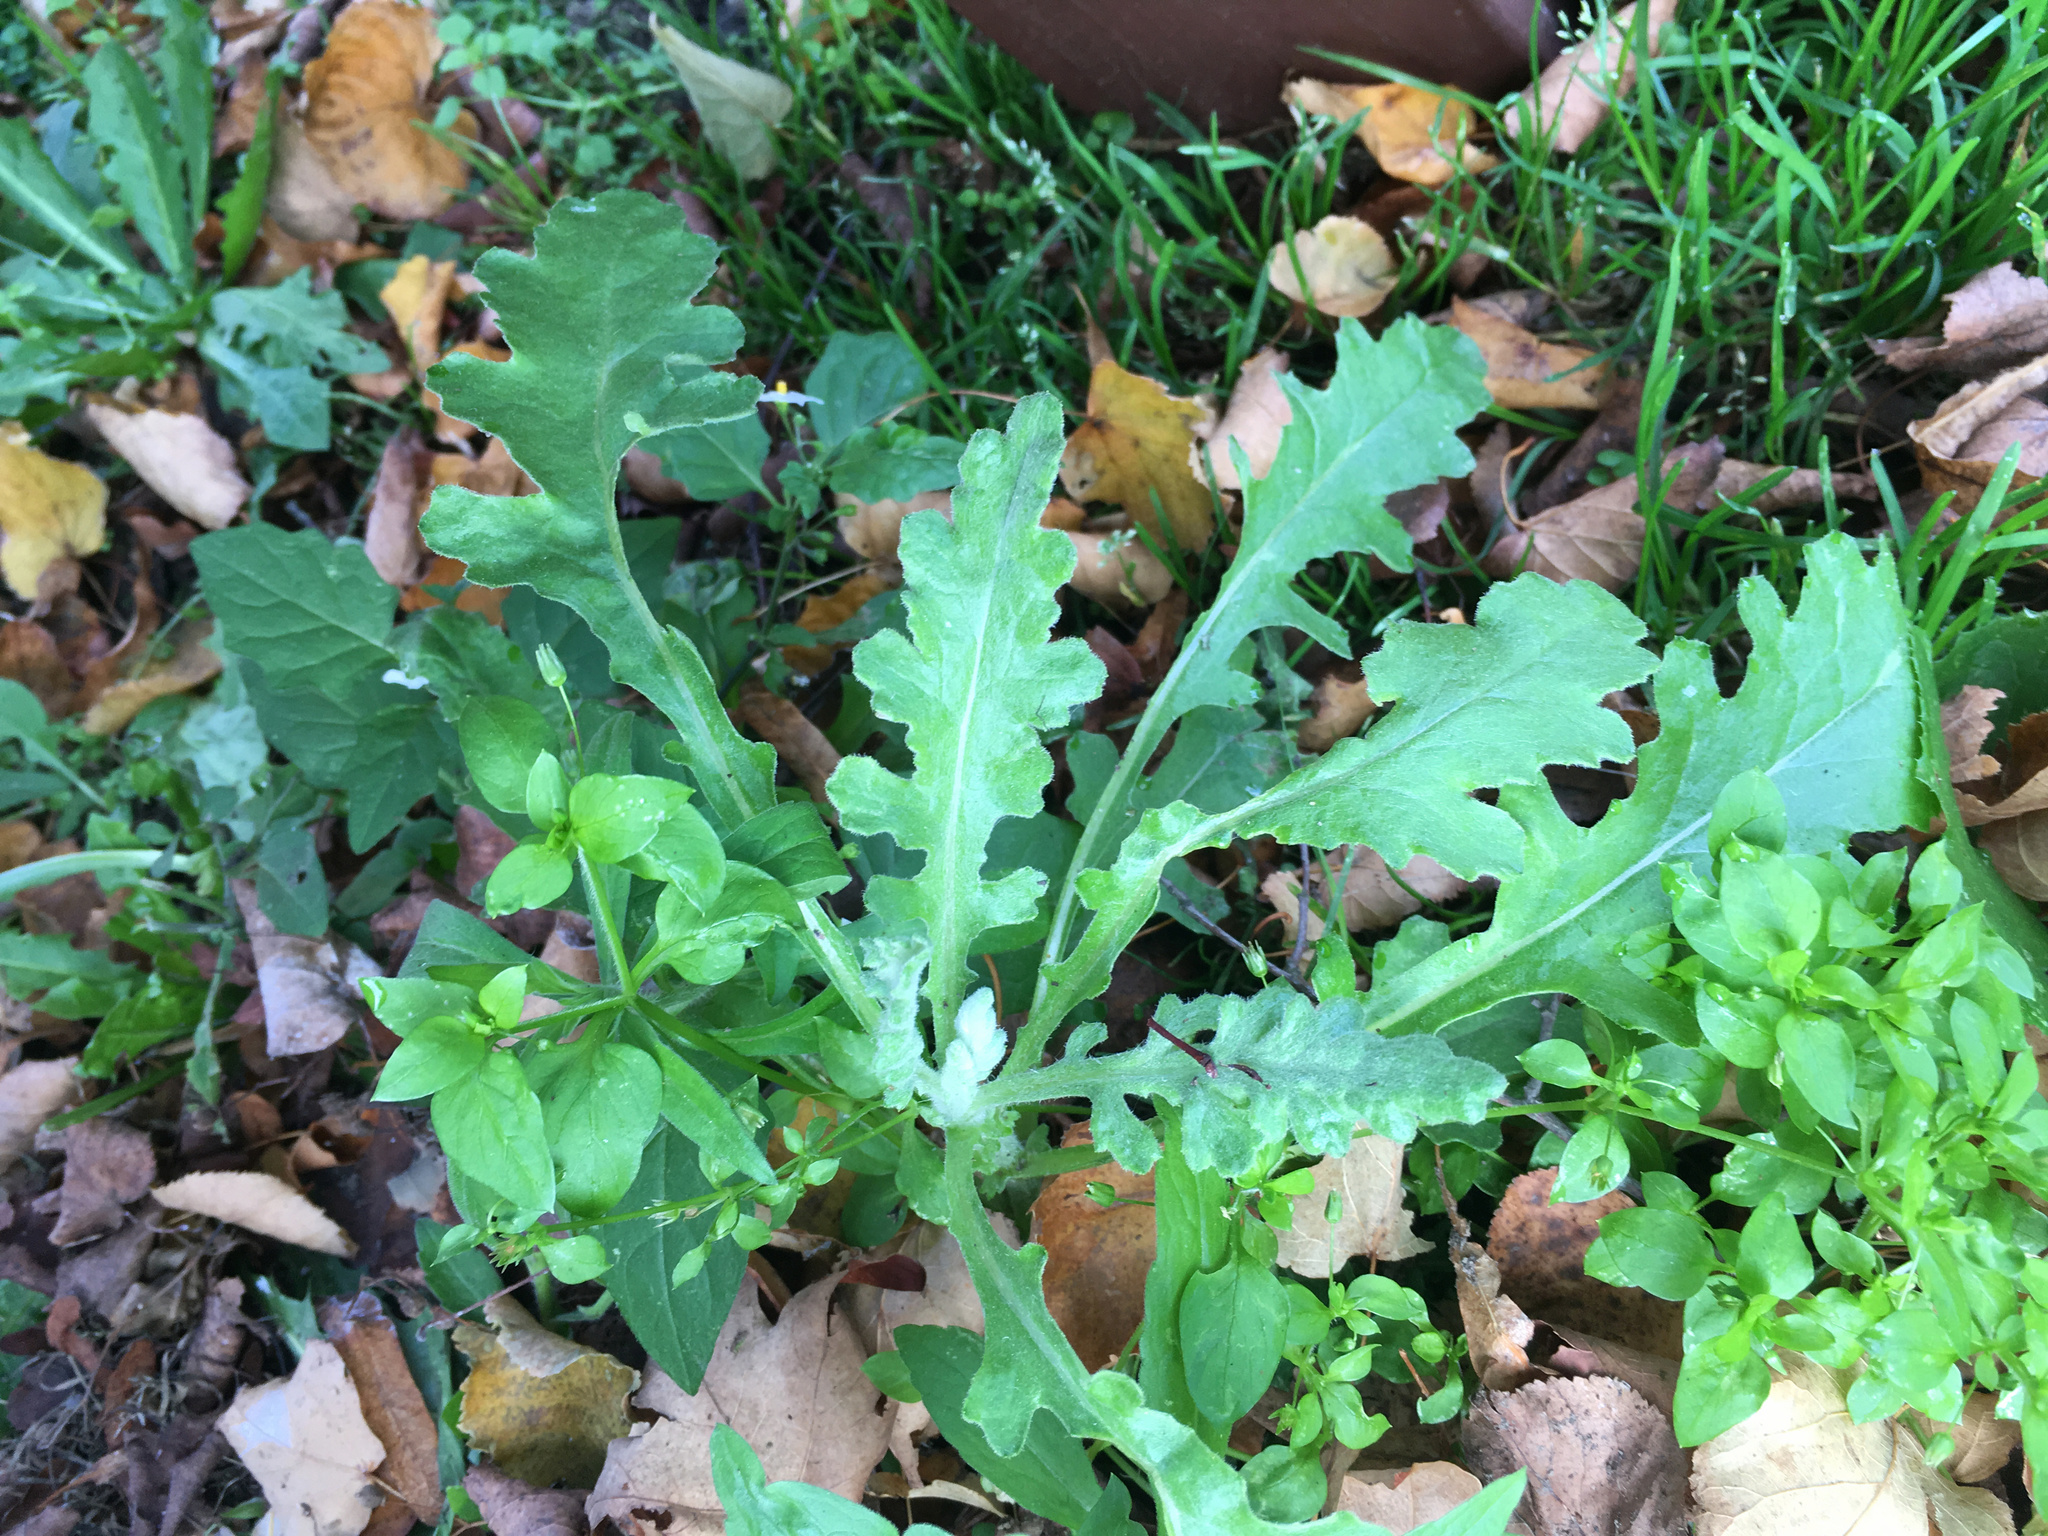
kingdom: Plantae
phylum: Tracheophyta
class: Magnoliopsida
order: Asterales
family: Asteraceae
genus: Senecio
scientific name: Senecio glomeratus
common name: Cutleaf burnweed
